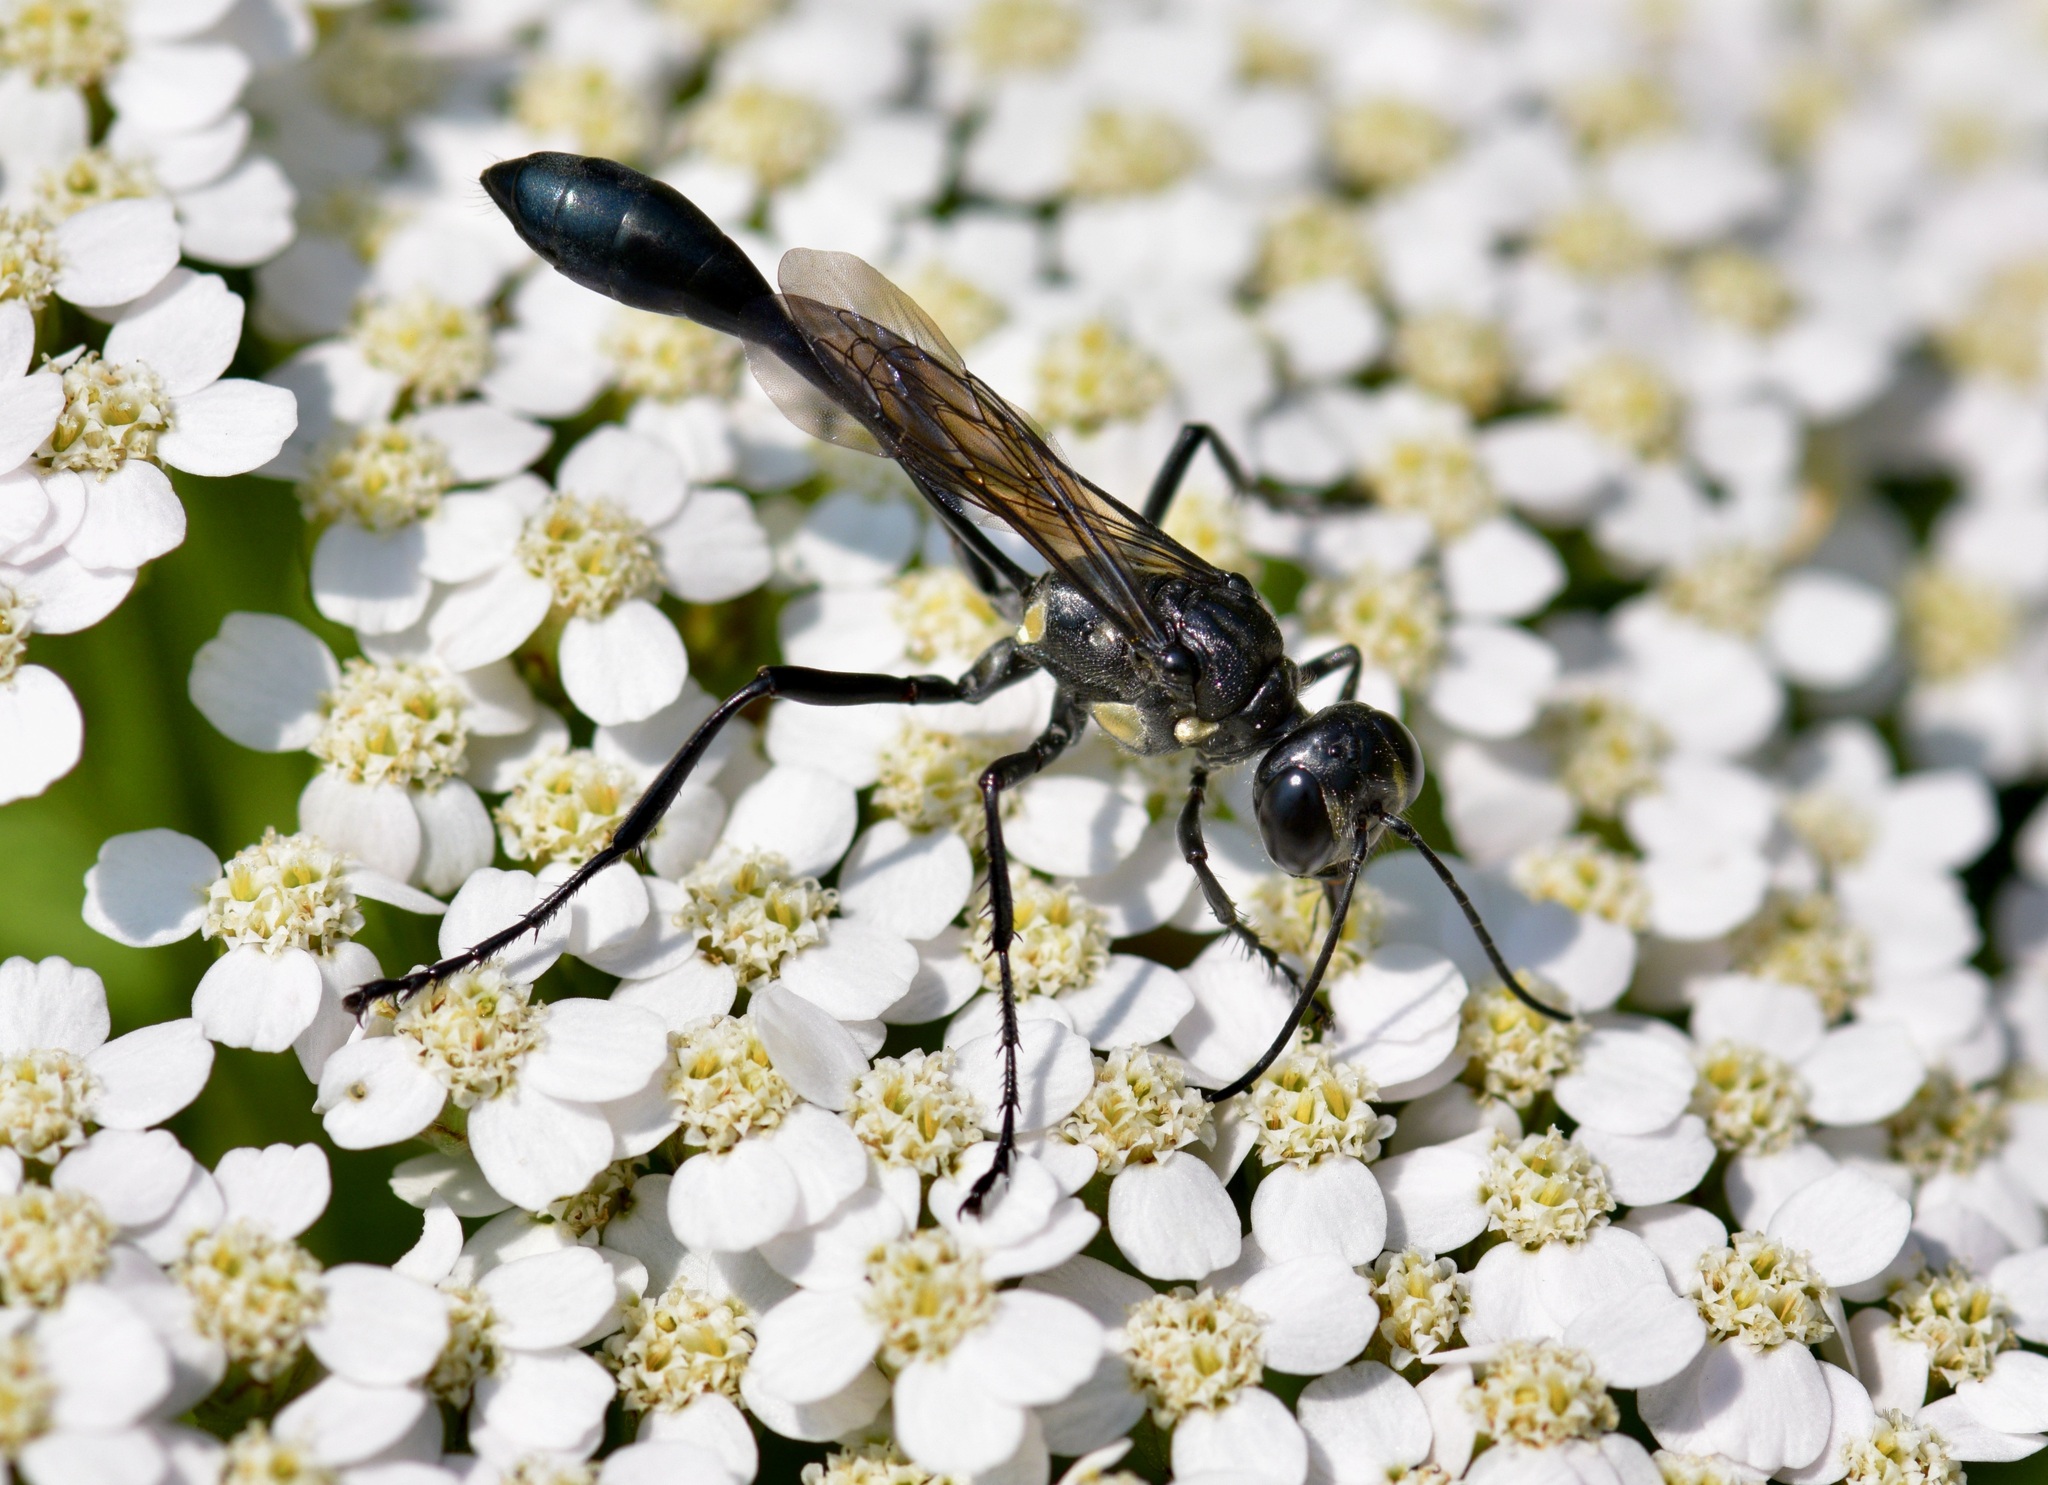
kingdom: Animalia
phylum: Arthropoda
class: Insecta
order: Hymenoptera
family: Sphecidae
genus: Eremnophila
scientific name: Eremnophila aureonotata
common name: Gold-marked thread-waisted wasp
